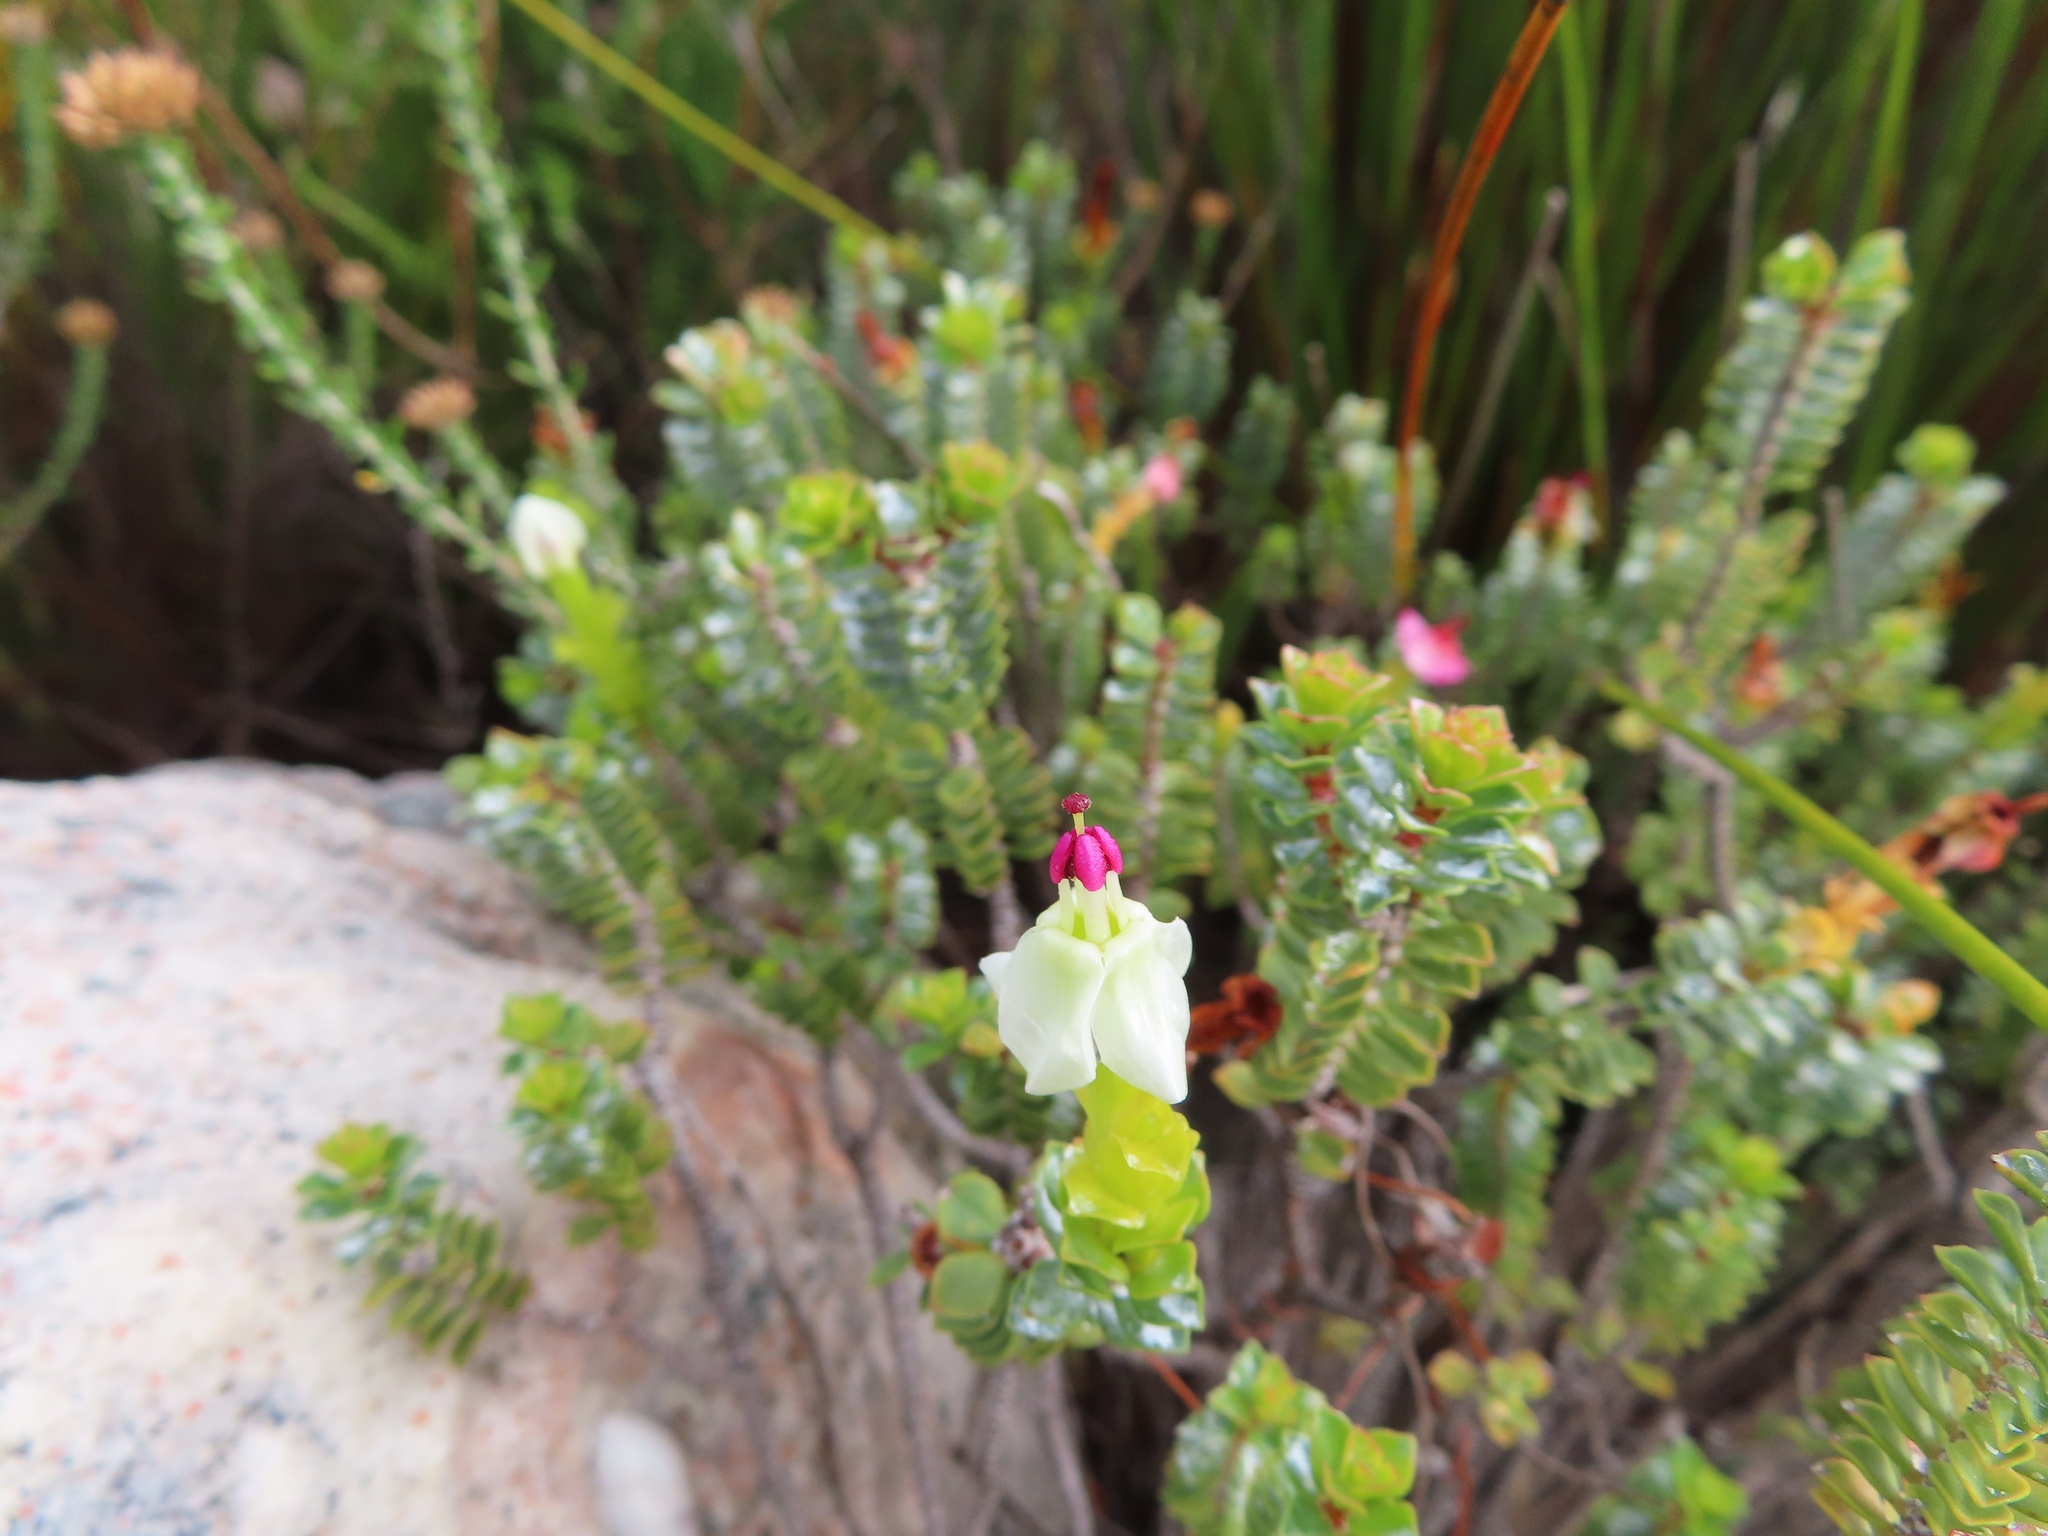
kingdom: Plantae
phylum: Tracheophyta
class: Magnoliopsida
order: Myrtales
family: Penaeaceae
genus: Saltera
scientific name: Saltera sarcocolla
